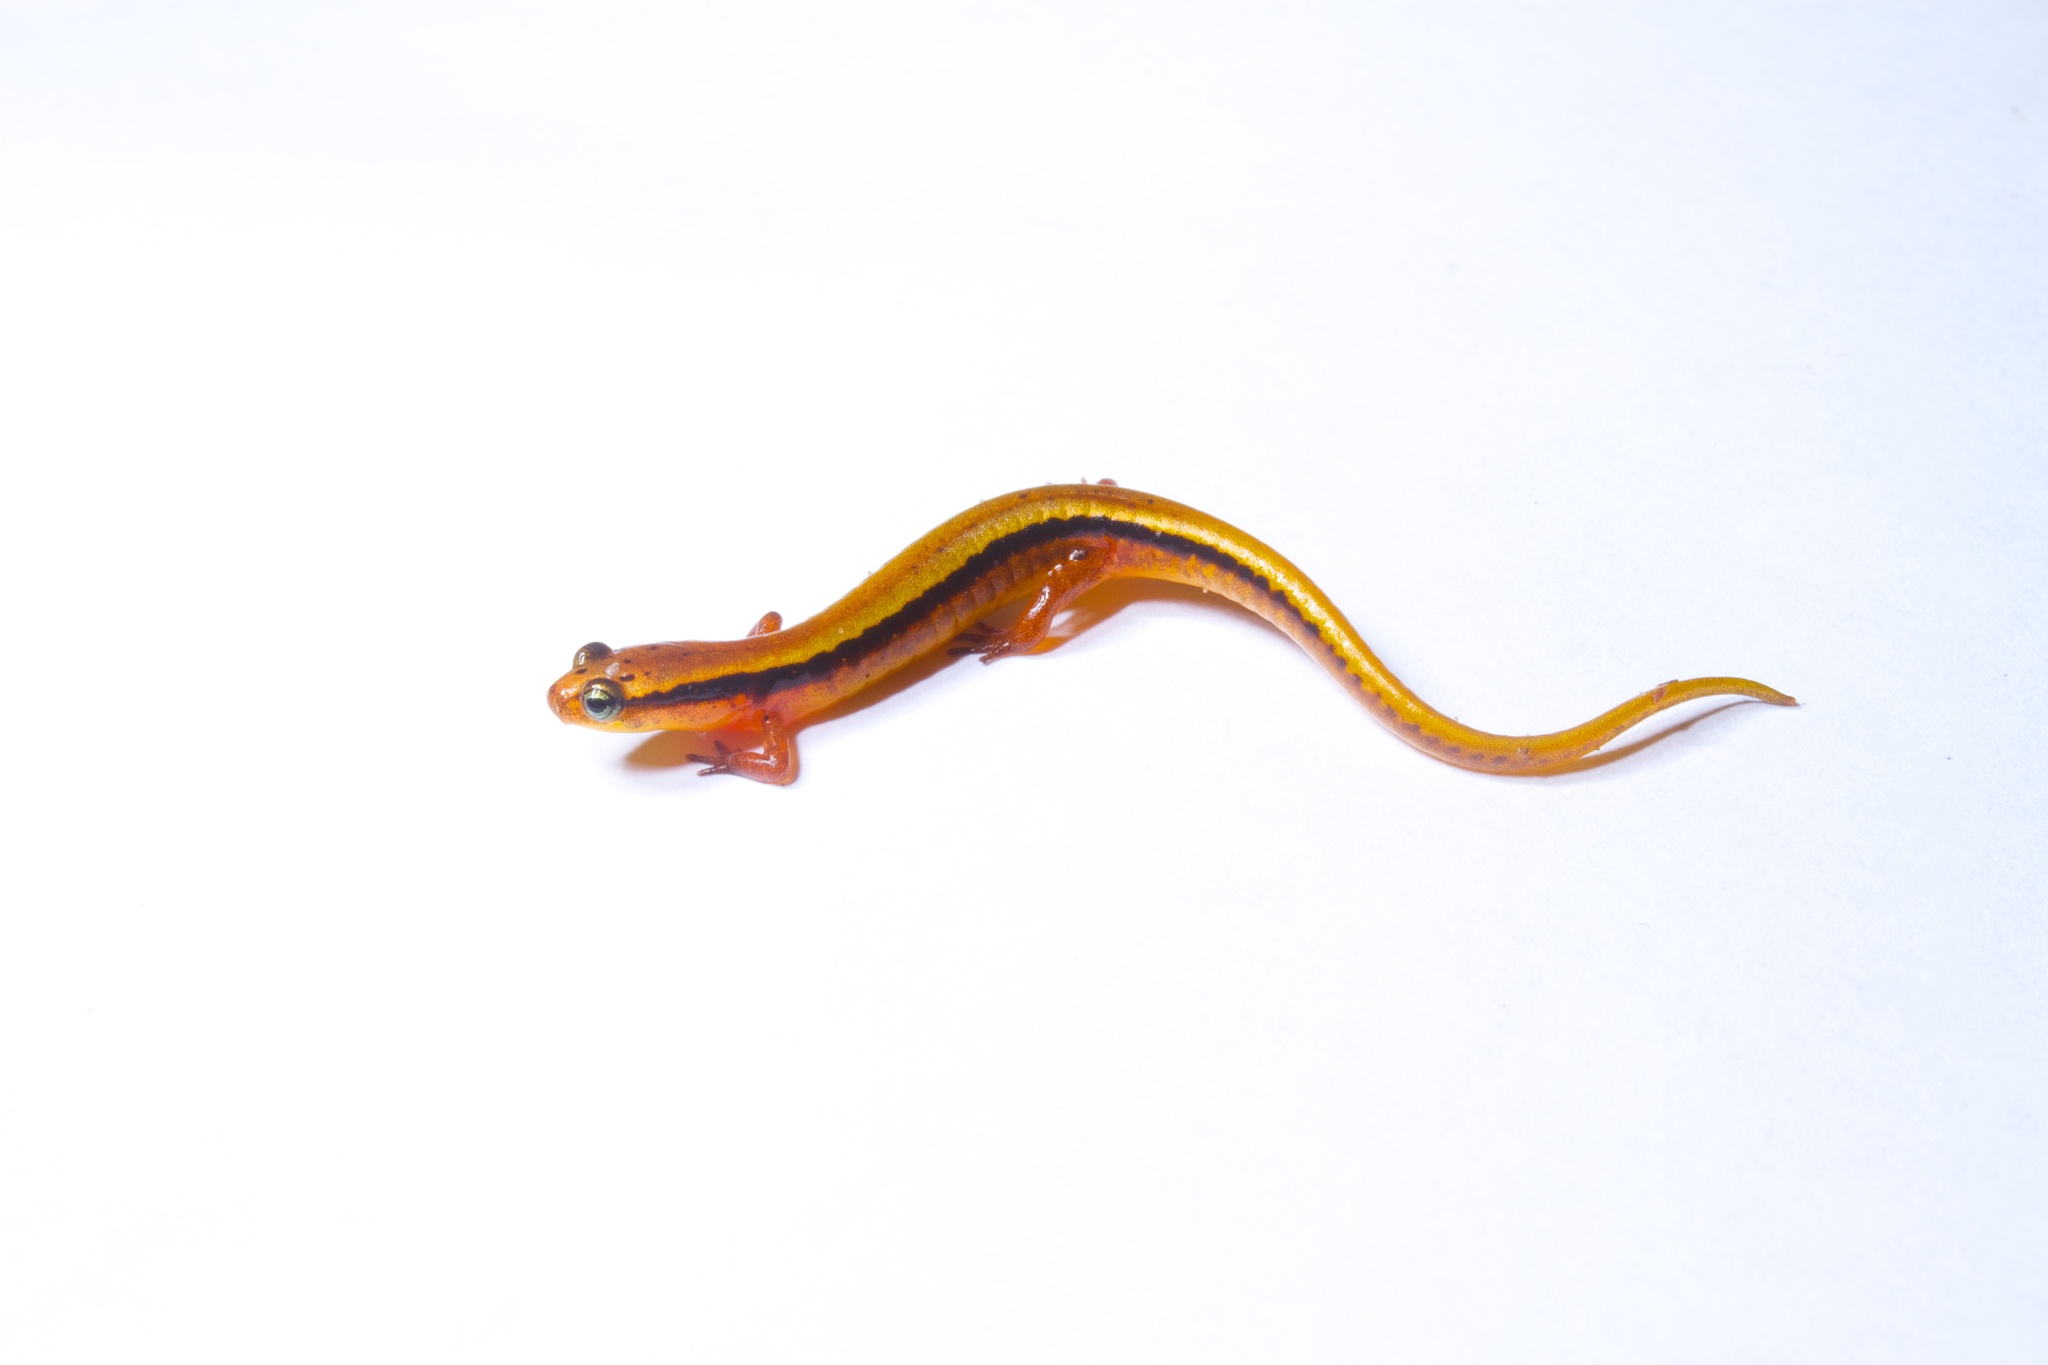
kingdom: Animalia
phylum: Chordata
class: Amphibia
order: Caudata
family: Plethodontidae
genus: Eurycea
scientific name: Eurycea wilderae
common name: Blue ridge two-lined salamander
